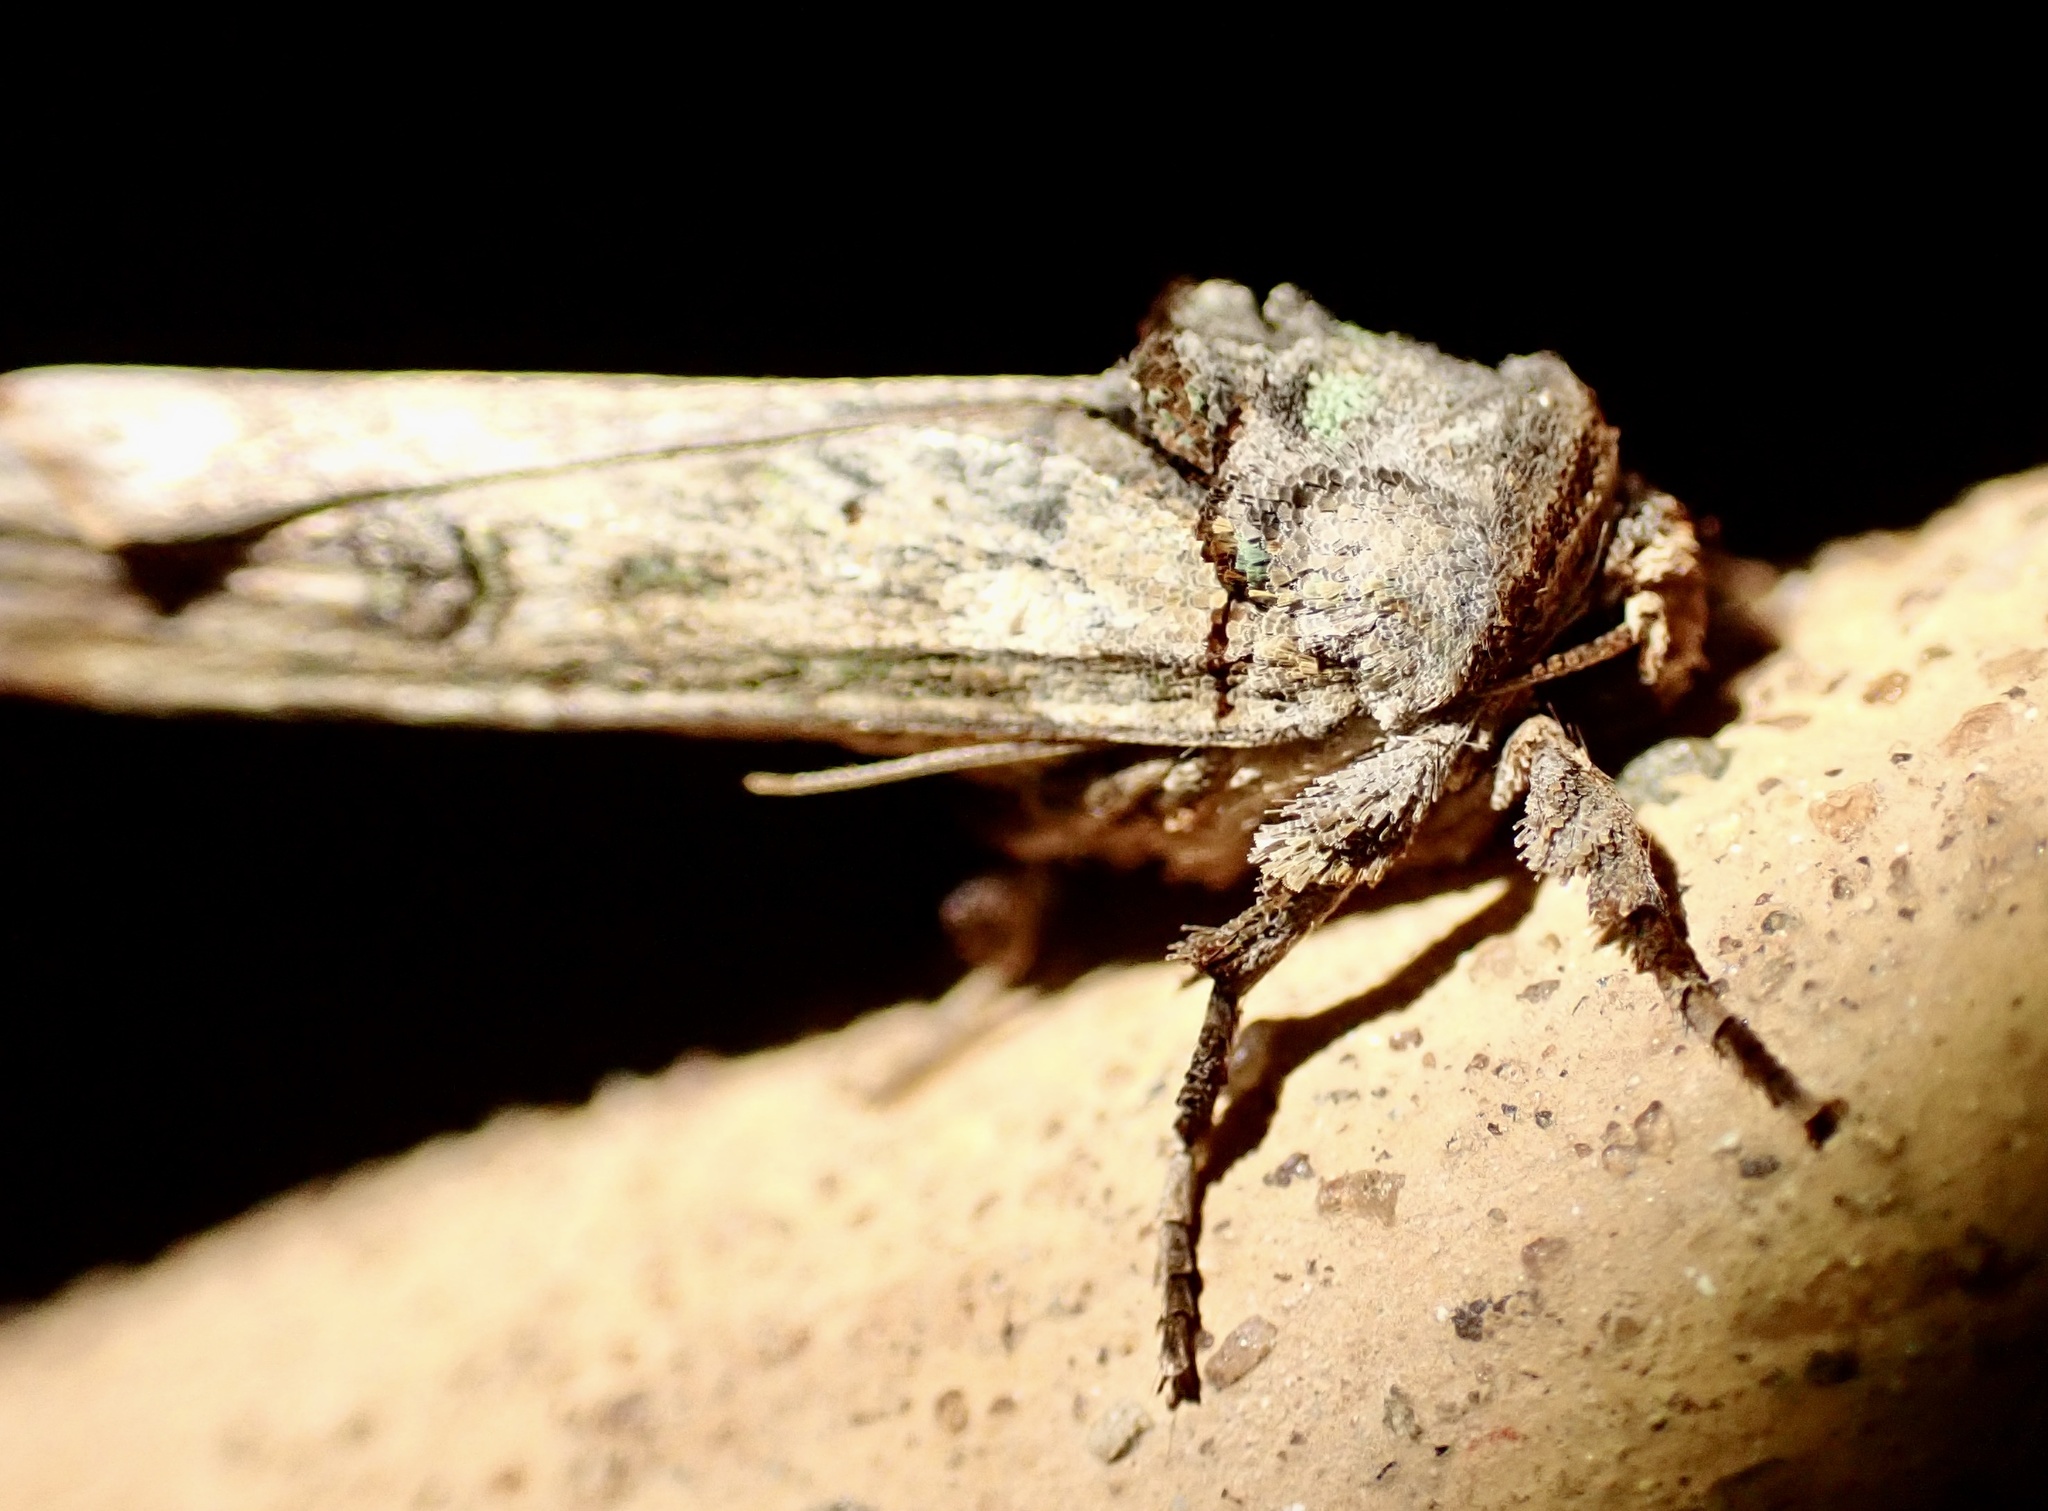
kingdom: Animalia
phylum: Arthropoda
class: Insecta
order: Lepidoptera
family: Noctuidae
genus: Lophotarsia
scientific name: Lophotarsia ochroprocta
